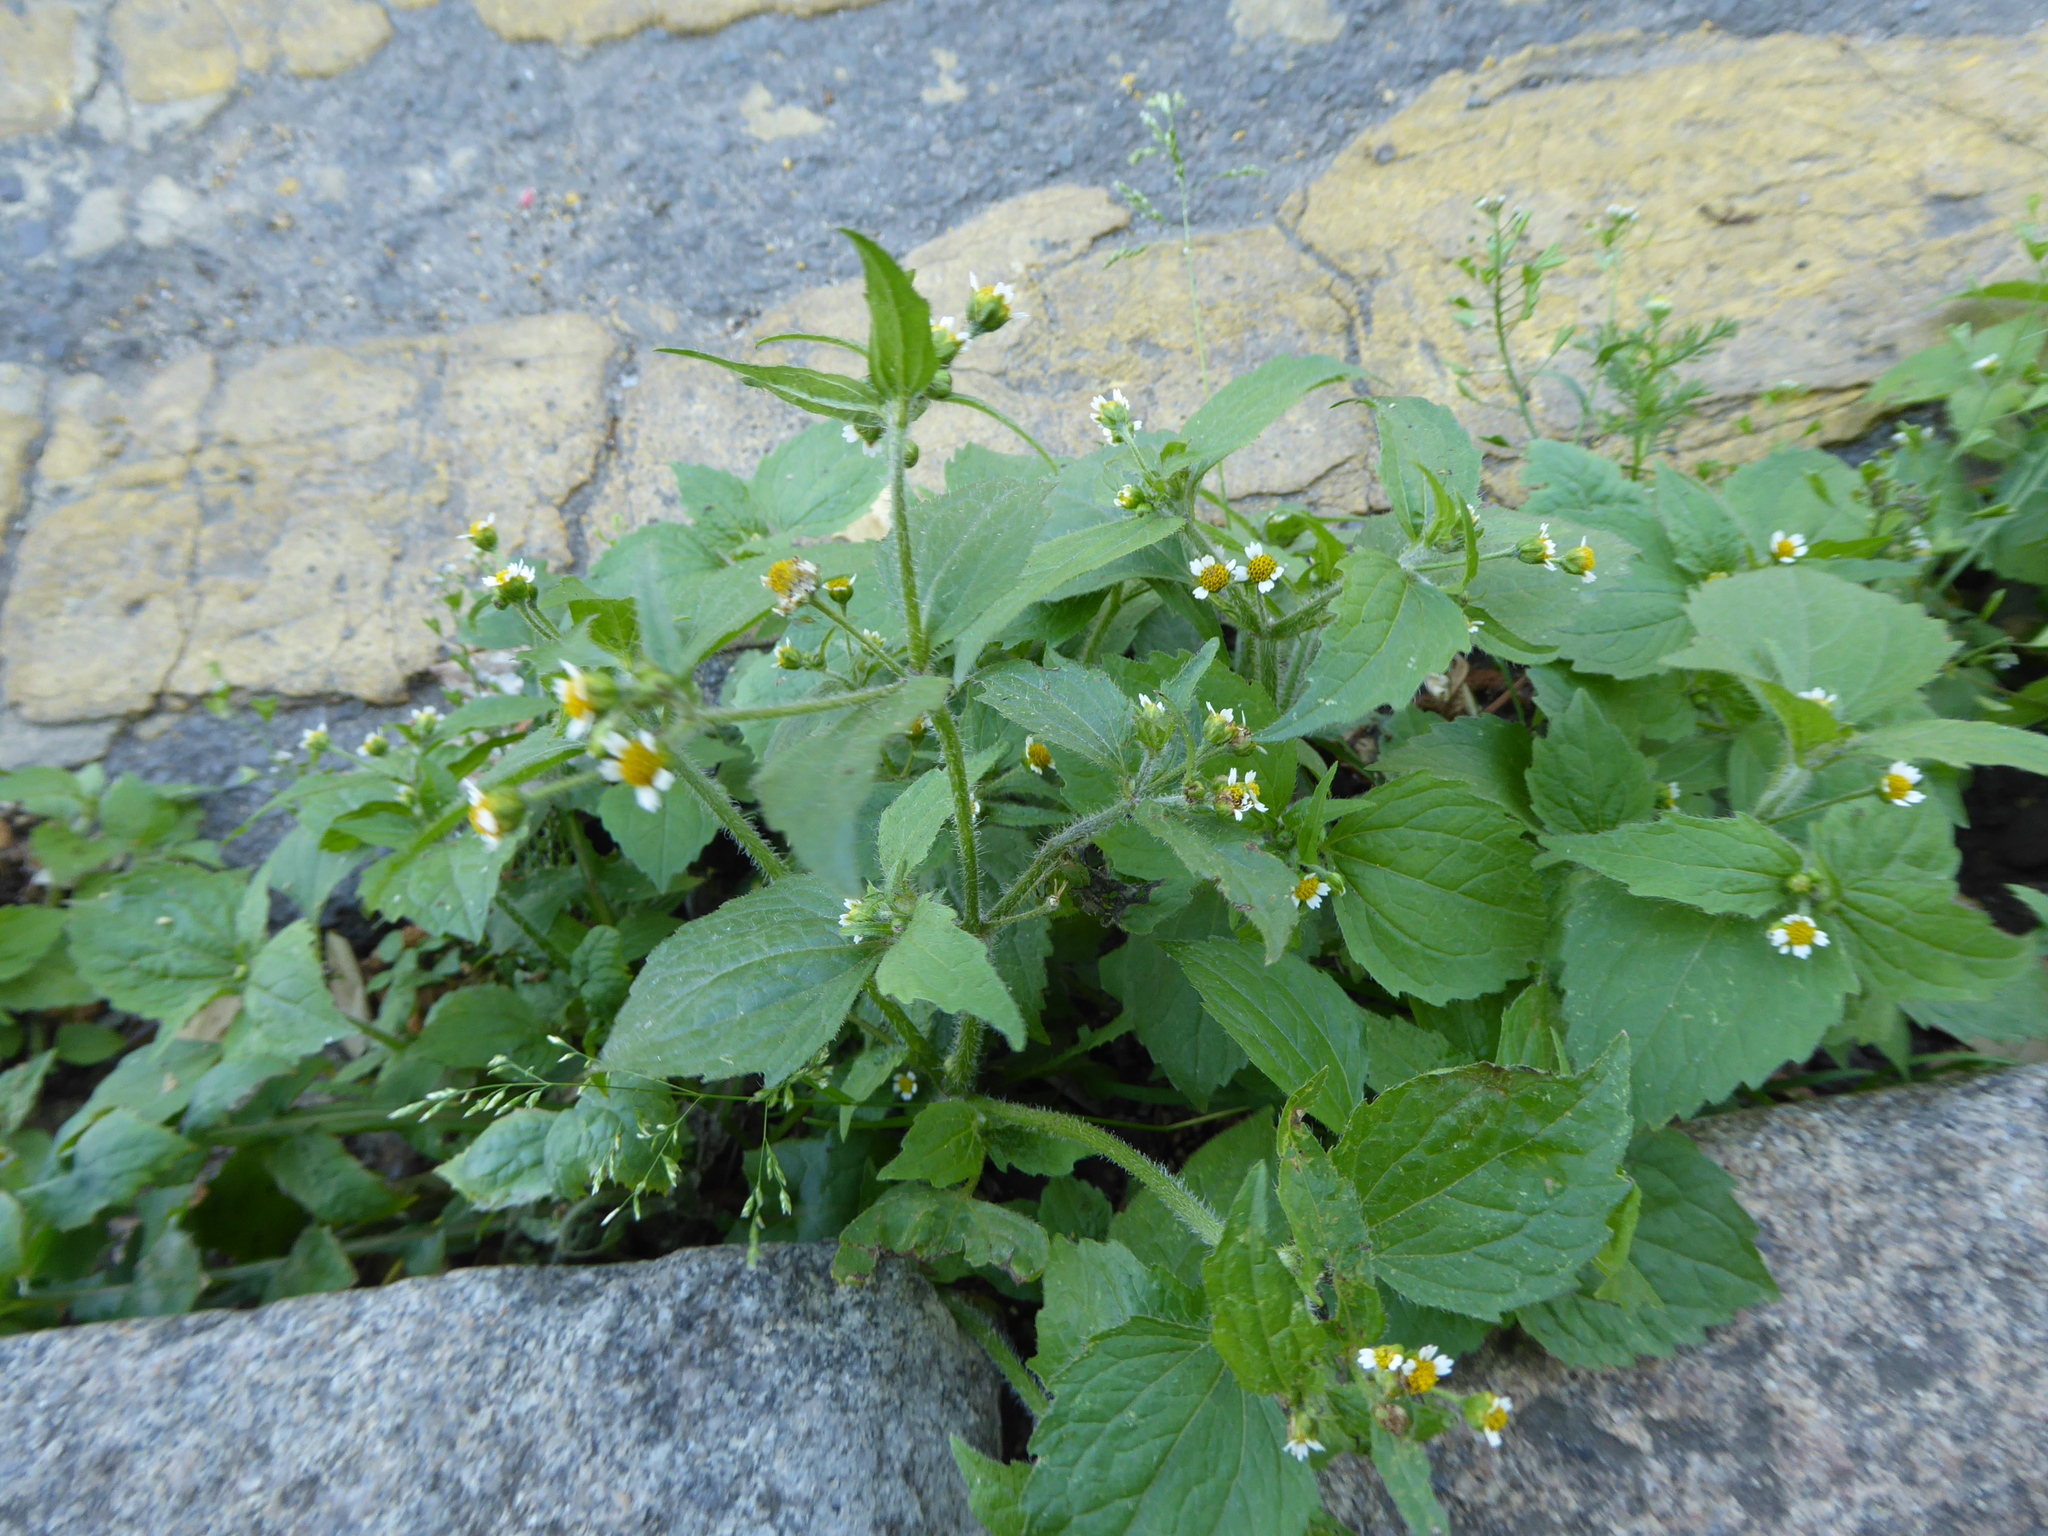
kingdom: Plantae
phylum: Tracheophyta
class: Magnoliopsida
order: Asterales
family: Asteraceae
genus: Galinsoga
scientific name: Galinsoga quadriradiata
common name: Shaggy soldier
